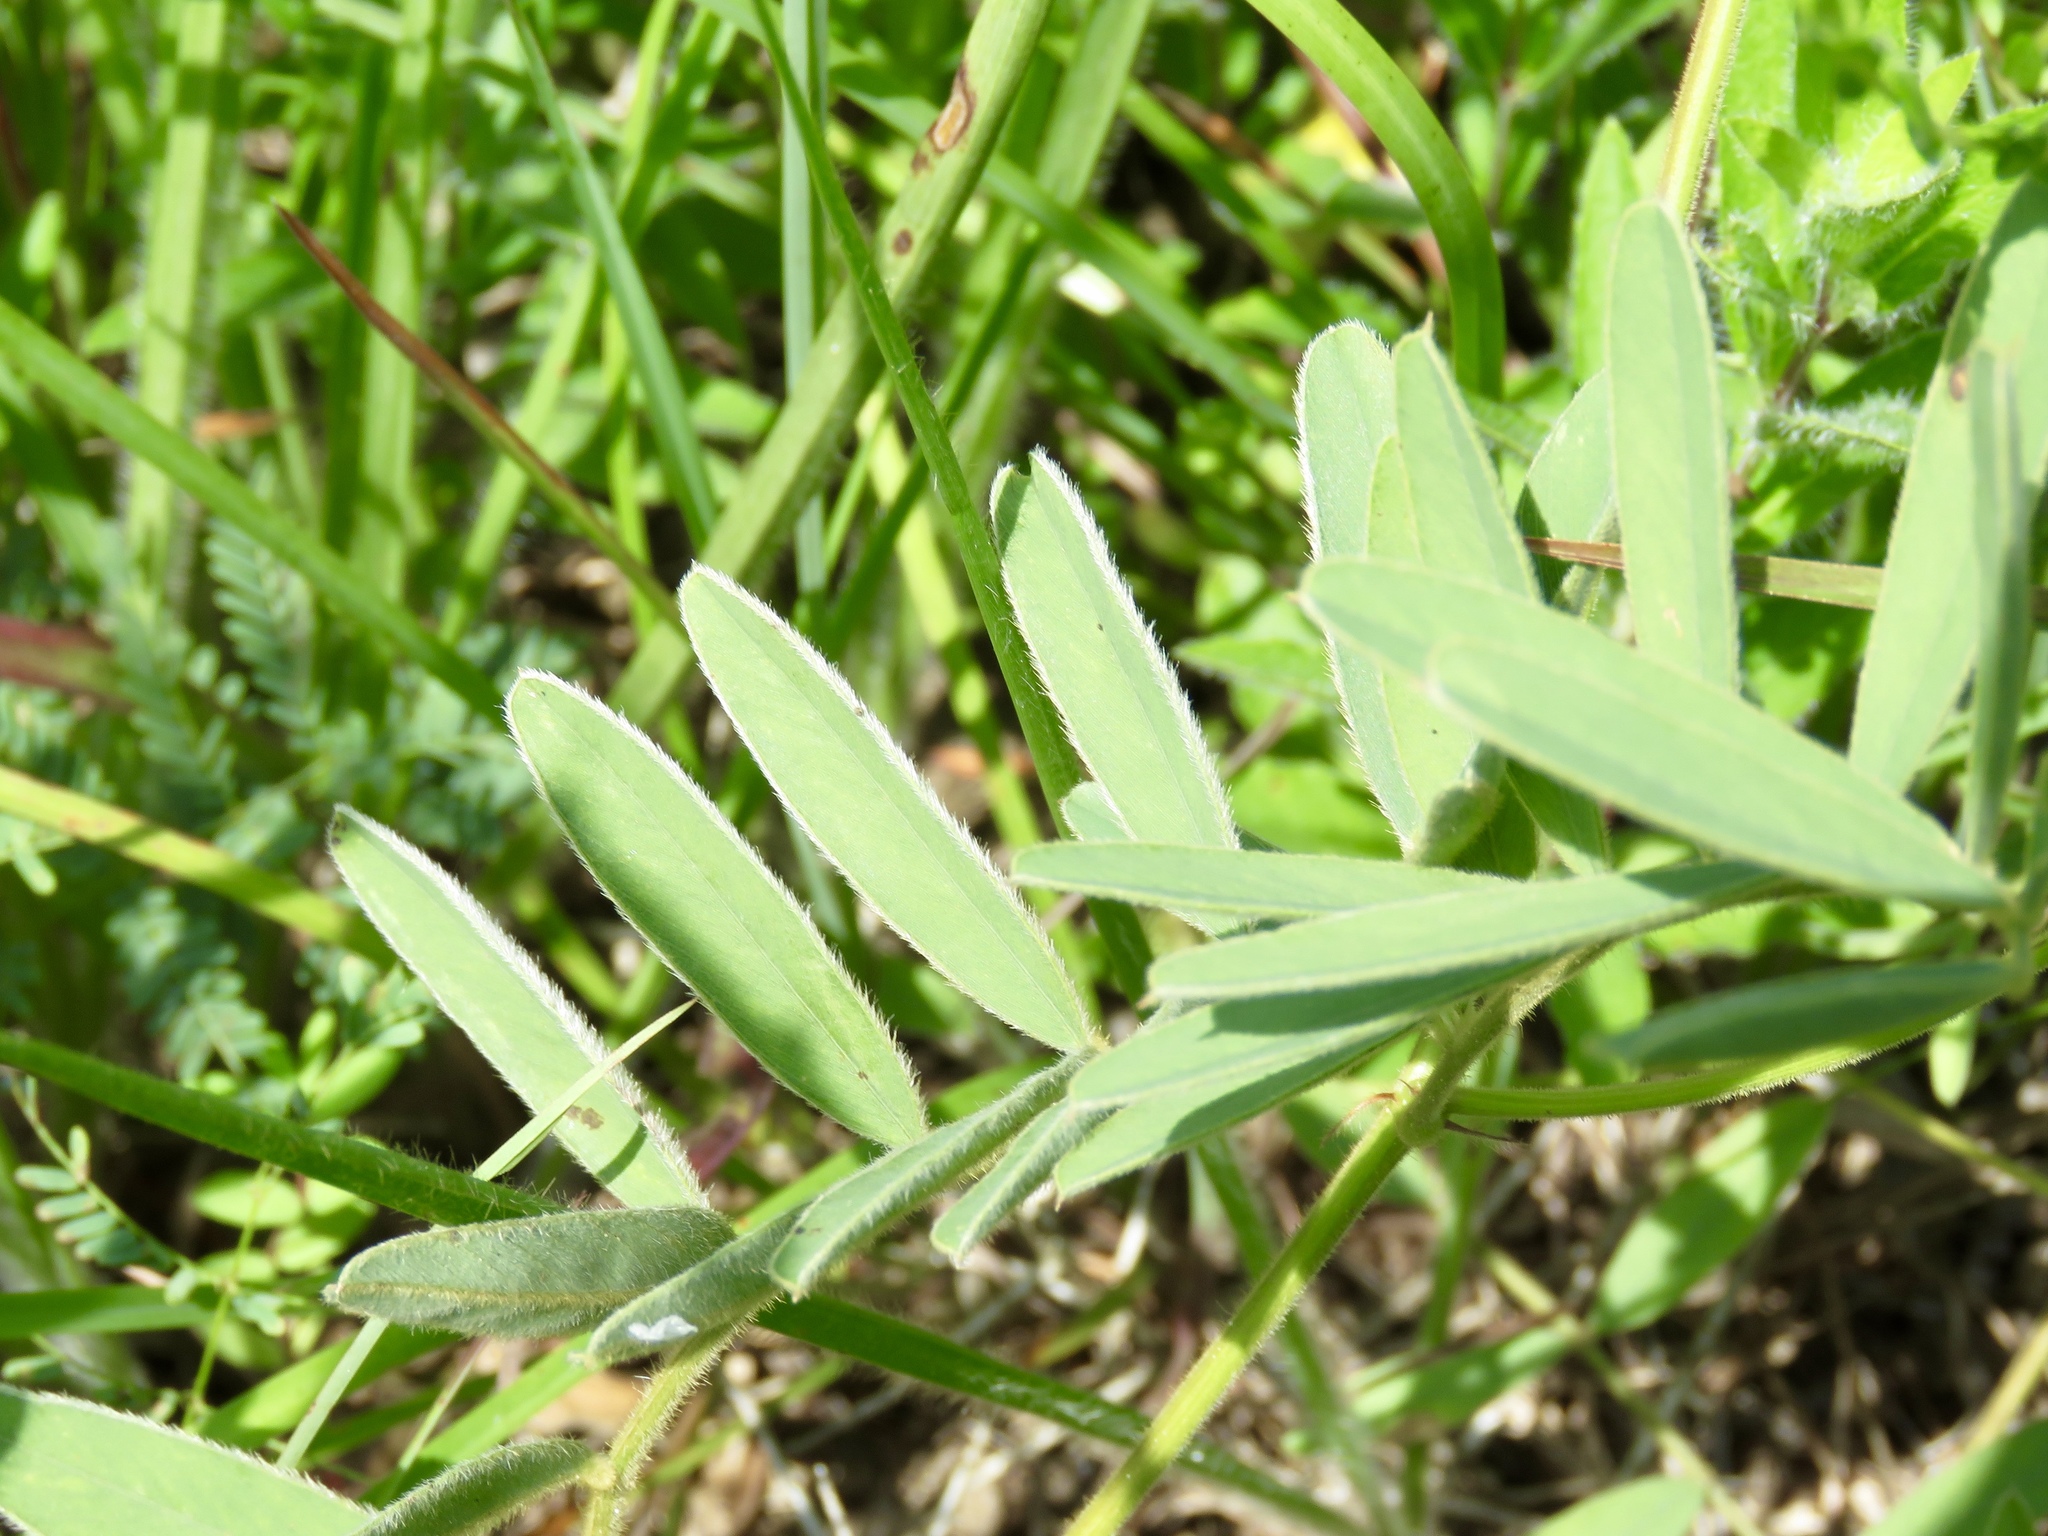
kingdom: Plantae
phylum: Tracheophyta
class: Magnoliopsida
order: Fabales
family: Fabaceae
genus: Tephrosia
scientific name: Tephrosia onobrychoides
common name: Multi-bloom hoary-pea
